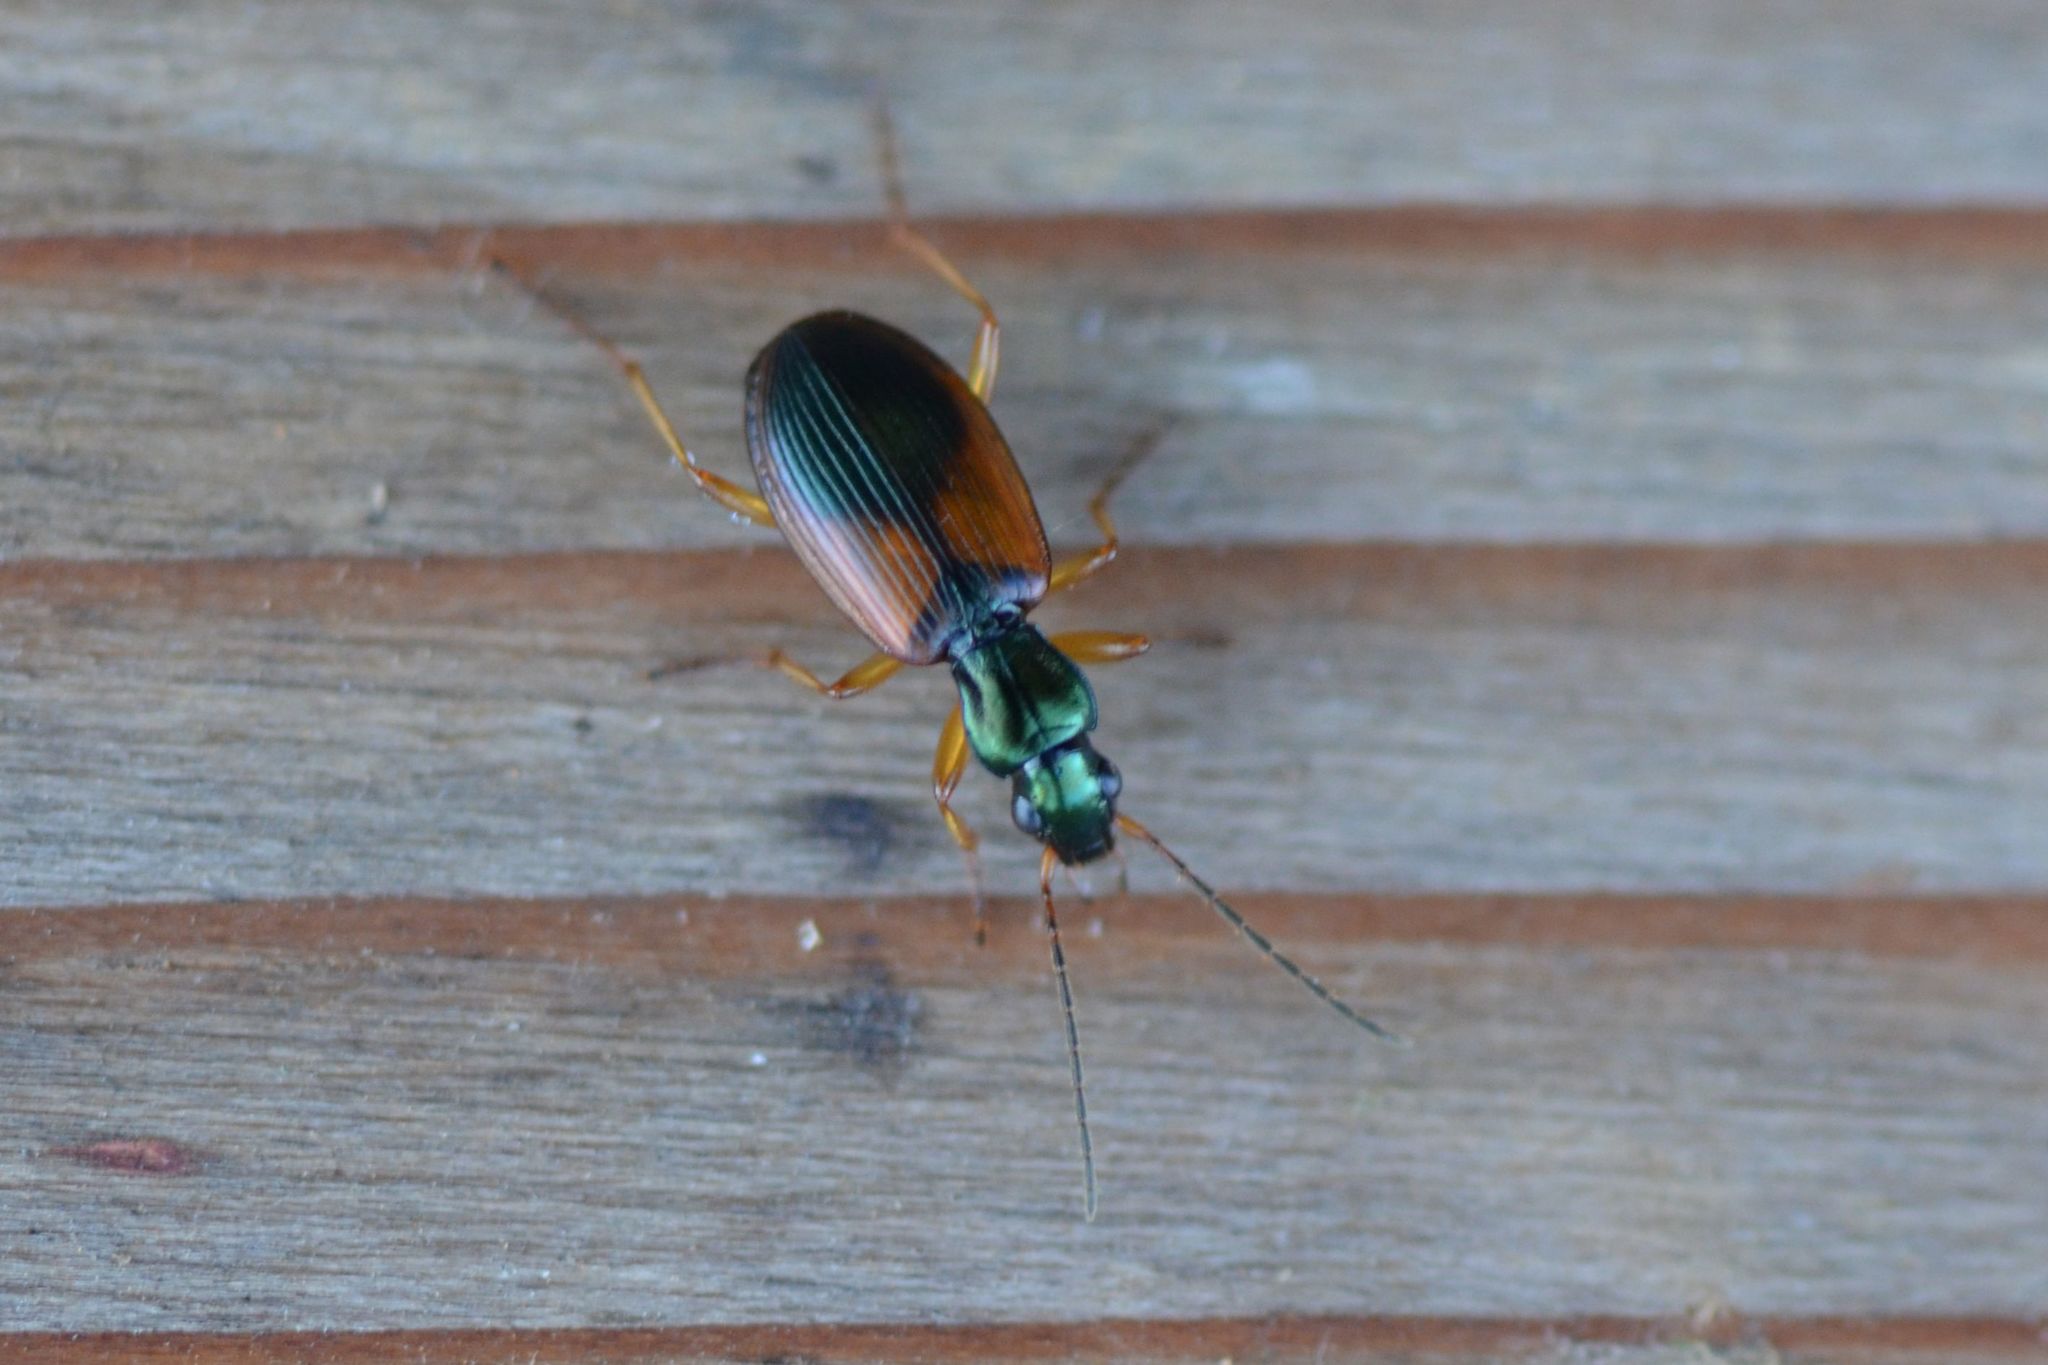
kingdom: Animalia
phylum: Arthropoda
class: Insecta
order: Coleoptera
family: Carabidae
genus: Anchomenus
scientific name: Anchomenus dorsalis
